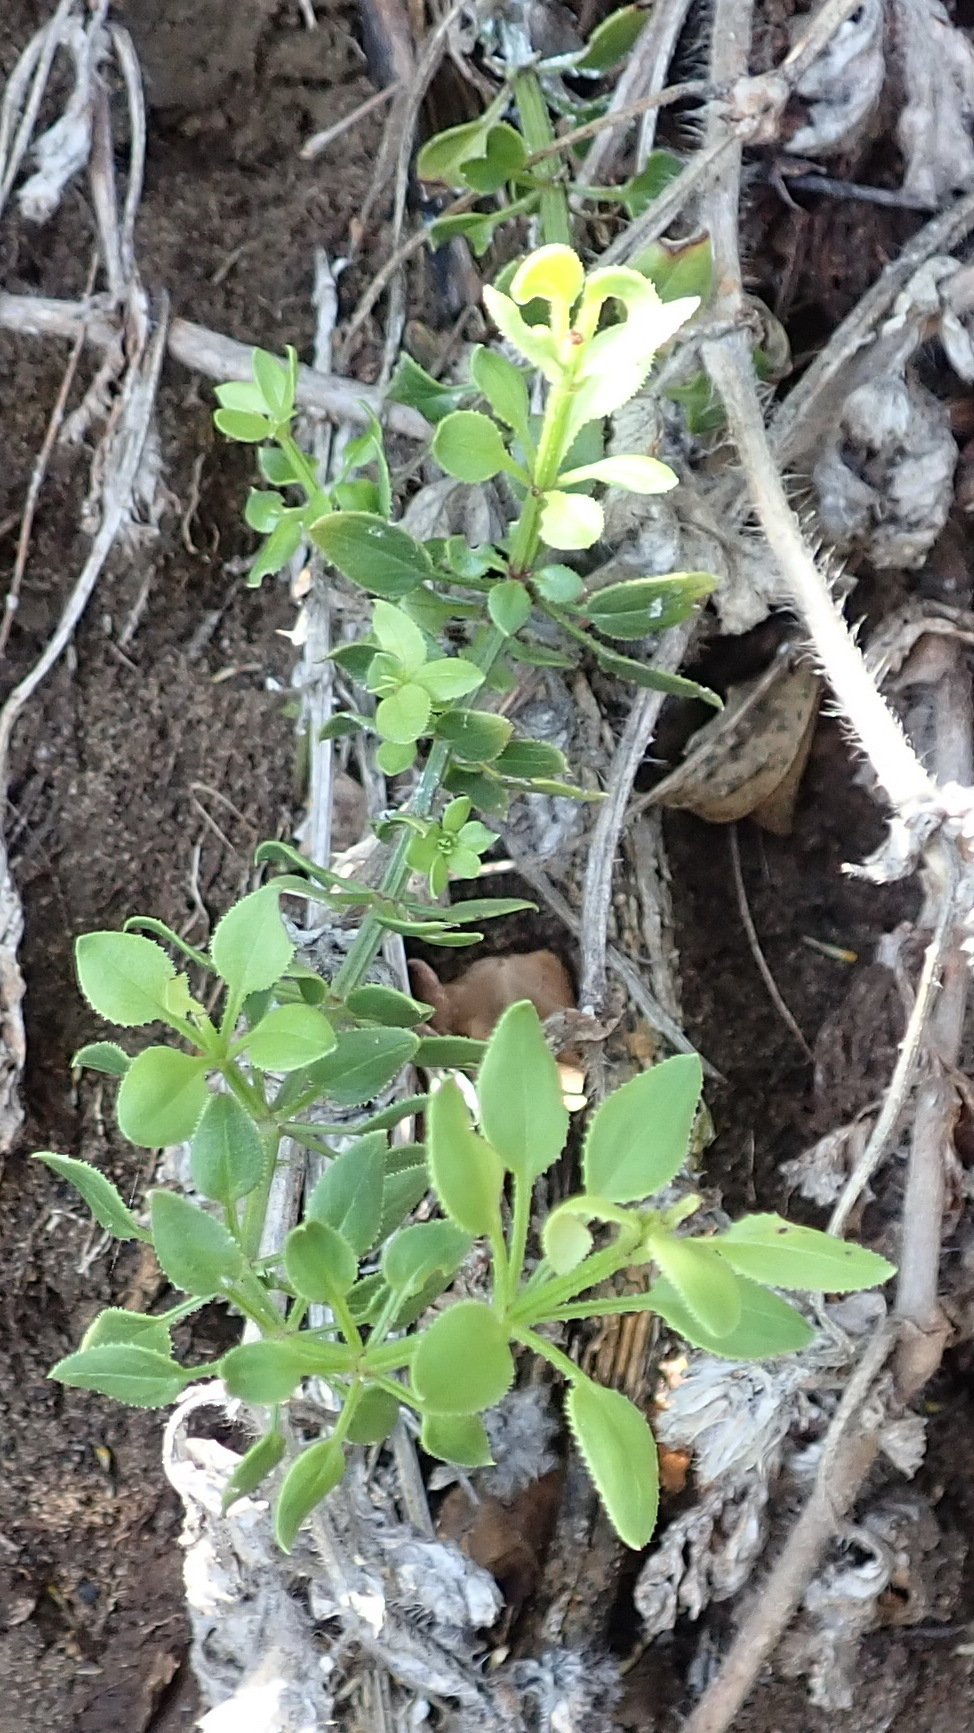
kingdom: Plantae
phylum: Tracheophyta
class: Magnoliopsida
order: Gentianales
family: Rubiaceae
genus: Rubia
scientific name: Rubia petiolaris
